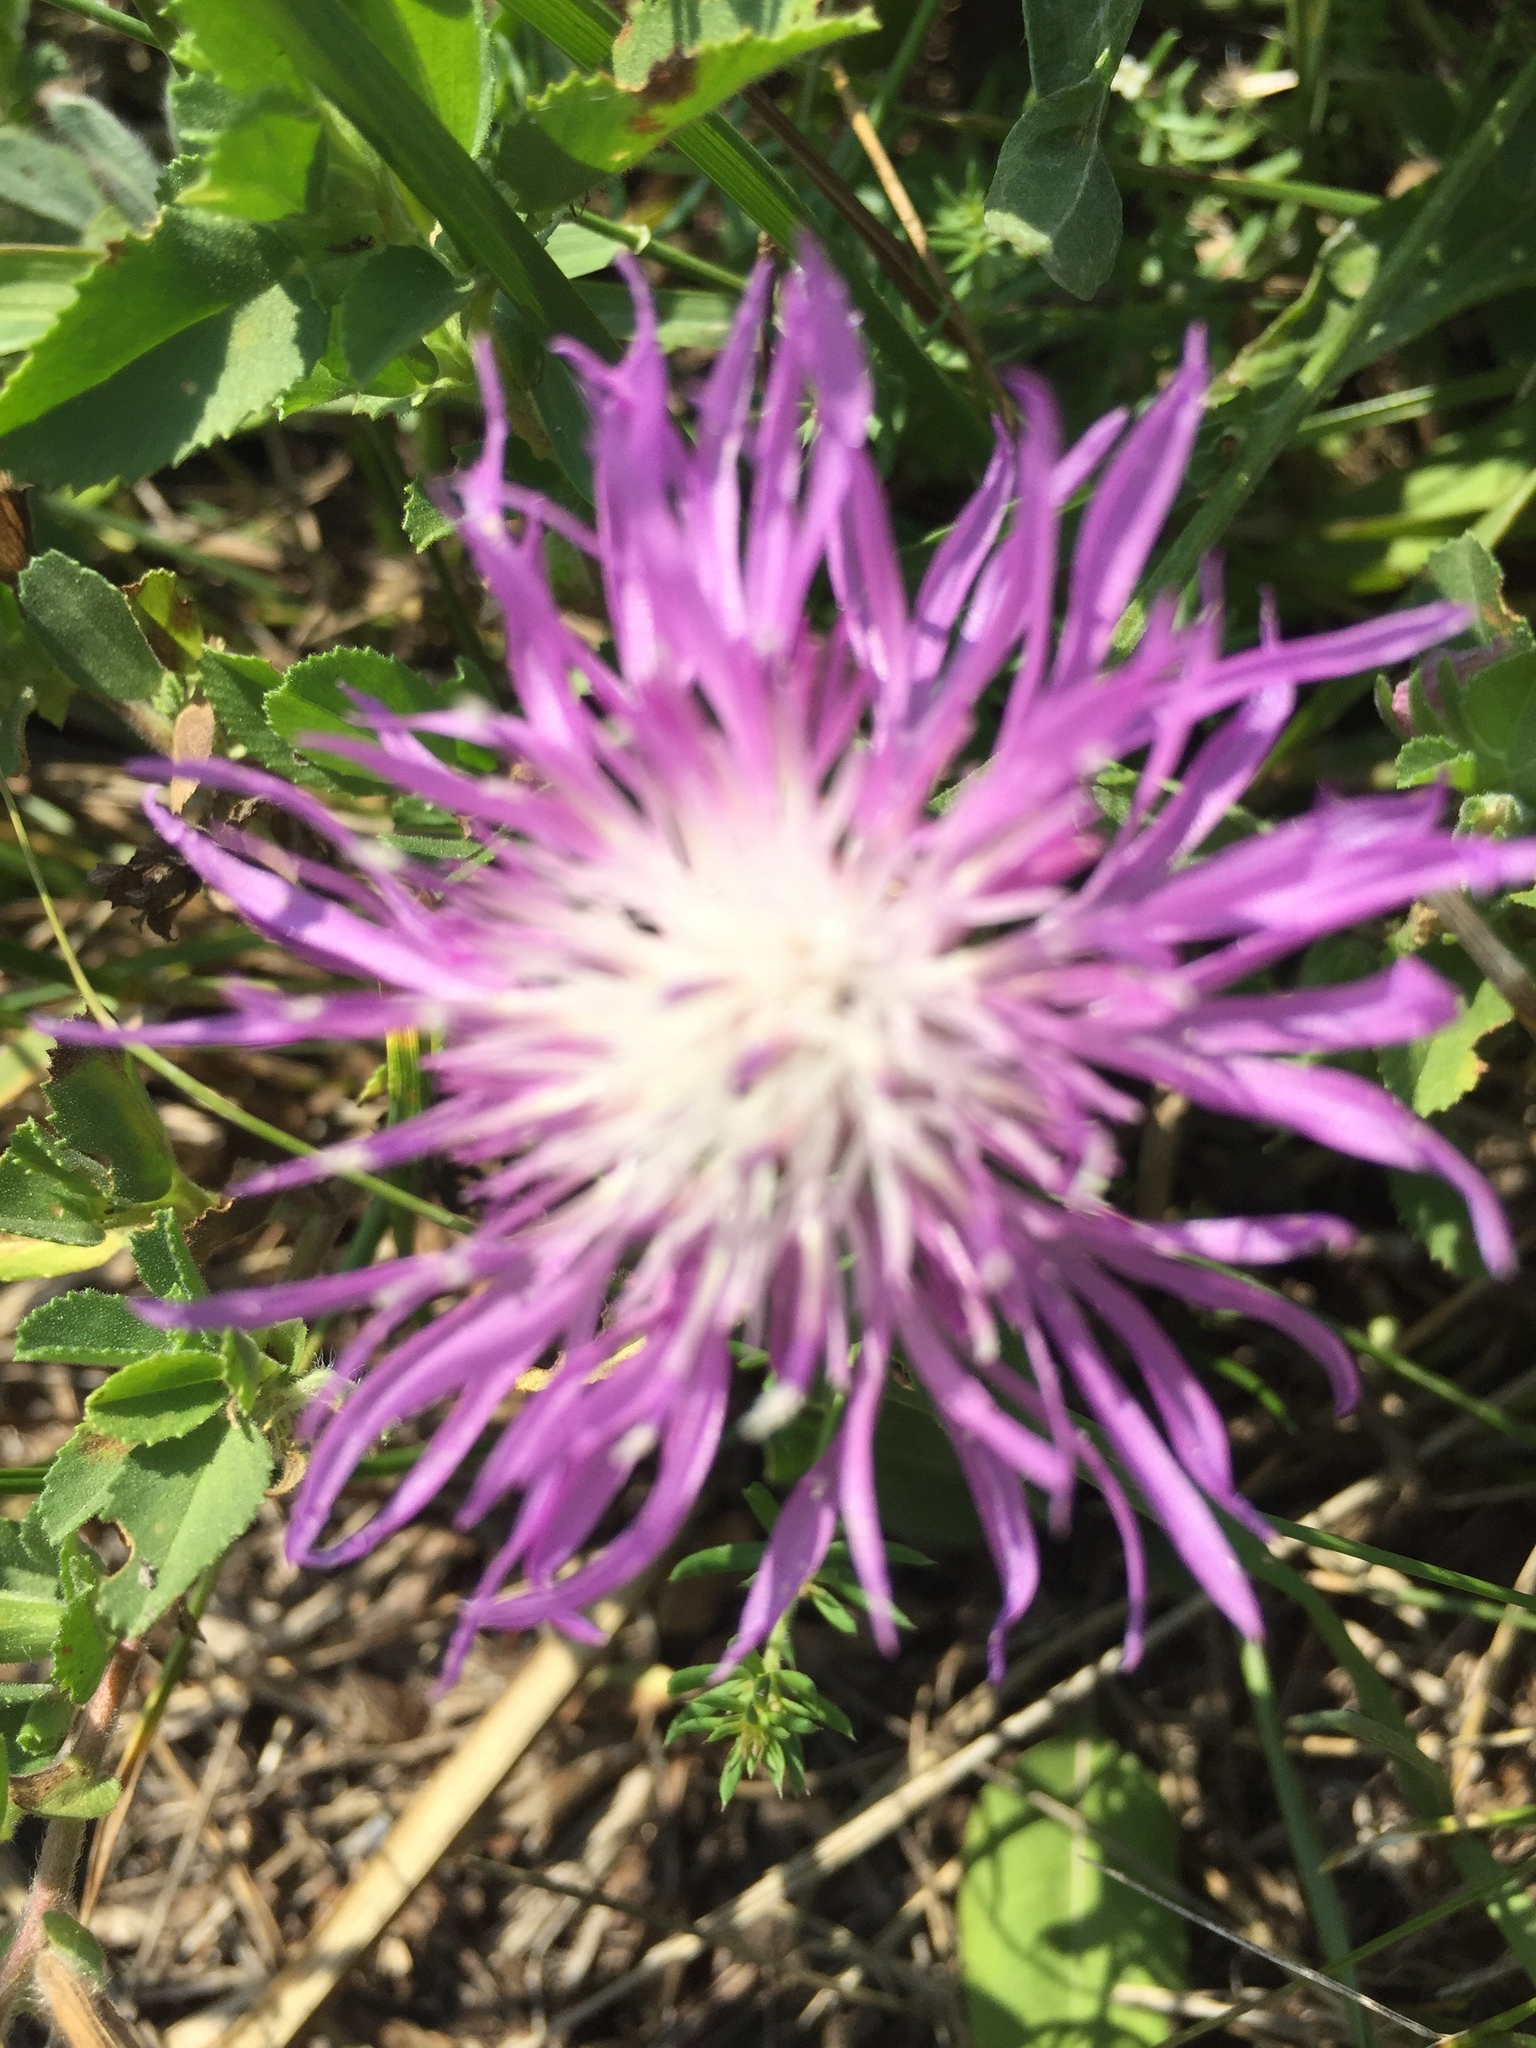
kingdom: Plantae
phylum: Tracheophyta
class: Magnoliopsida
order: Asterales
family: Asteraceae
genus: Centaurea
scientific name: Centaurea jacea
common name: Brown knapweed
